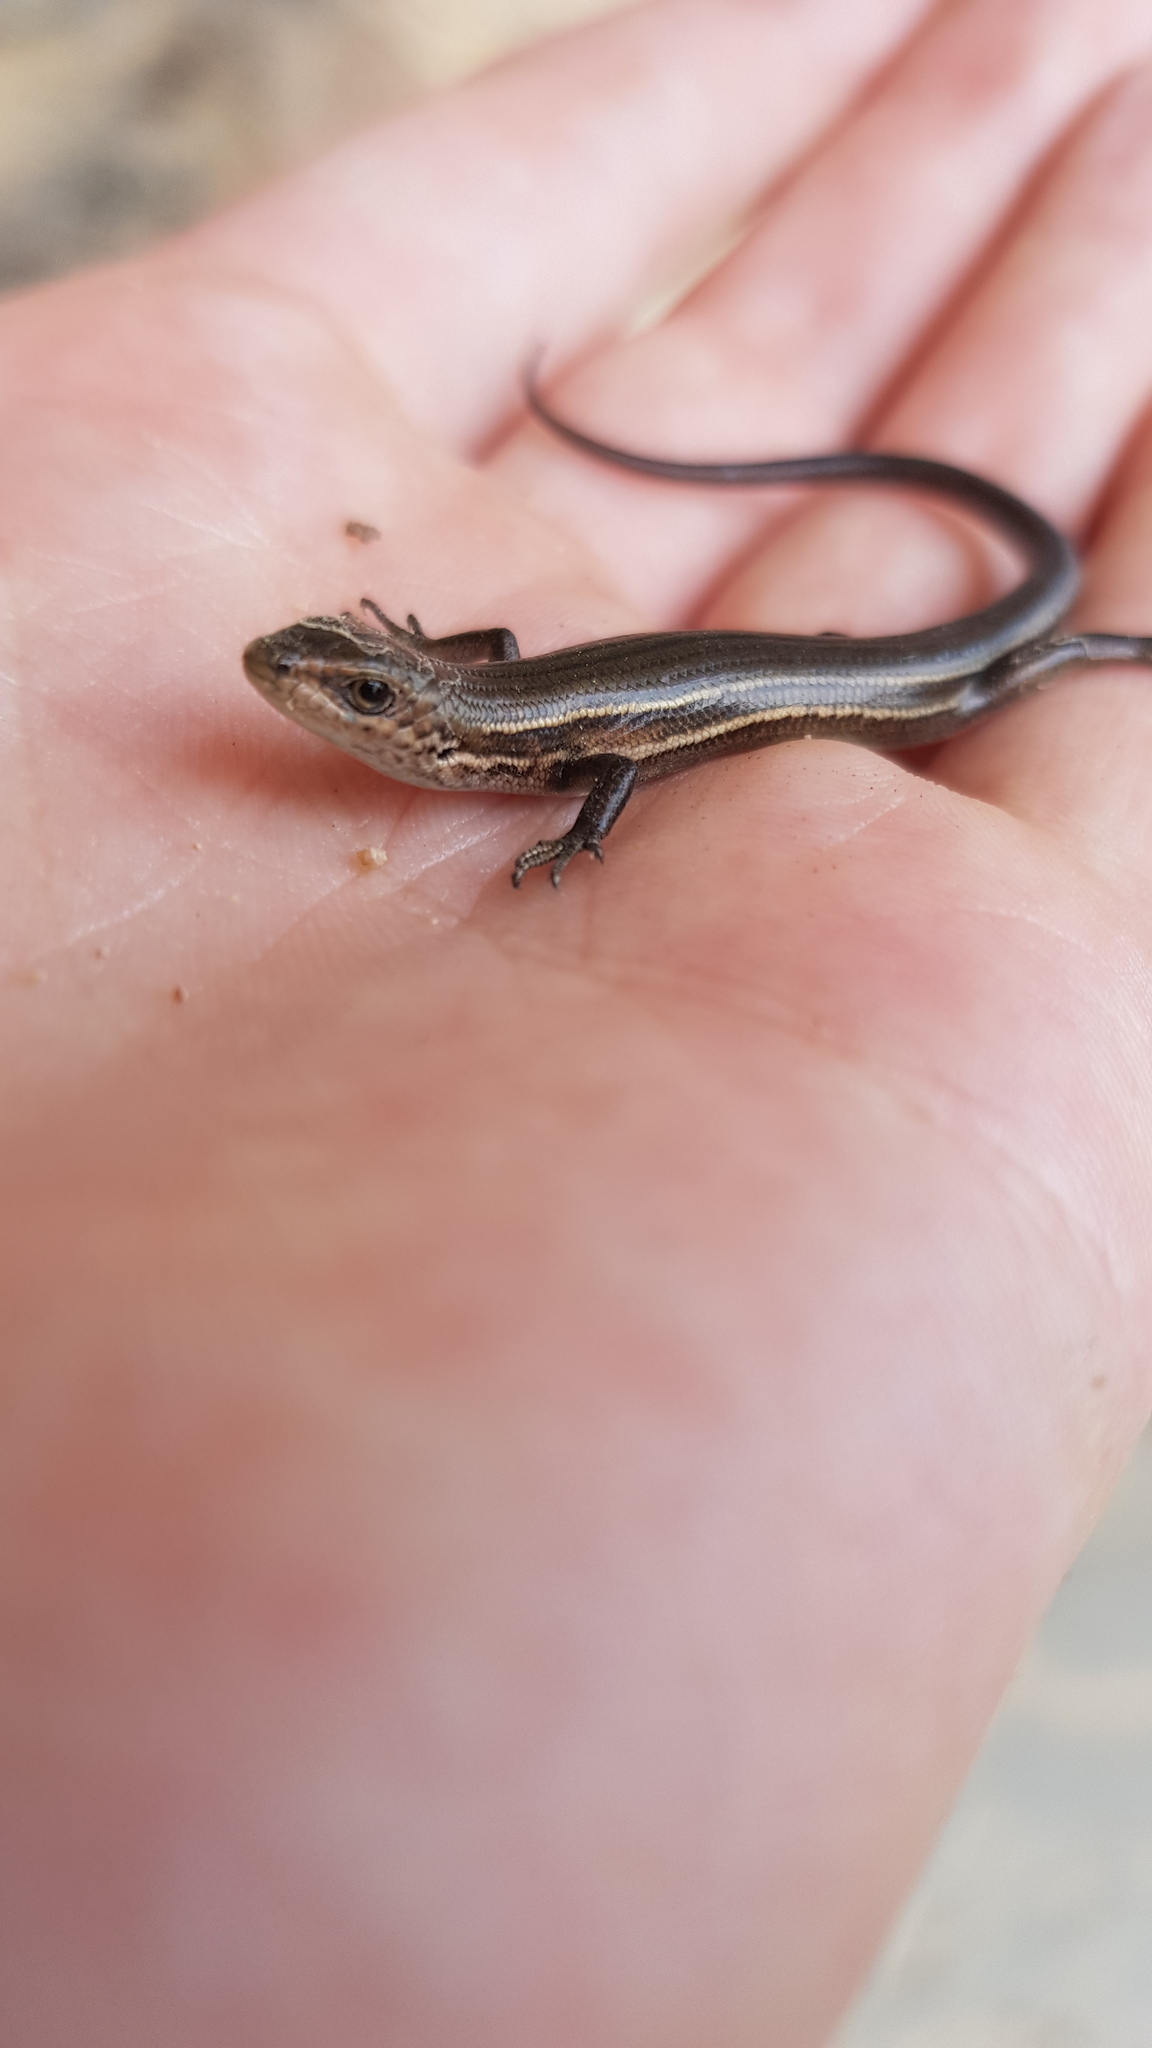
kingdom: Animalia
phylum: Chordata
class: Squamata
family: Scincidae
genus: Pseudemoia
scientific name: Pseudemoia pagenstecheri
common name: Southern grass tussock skink
